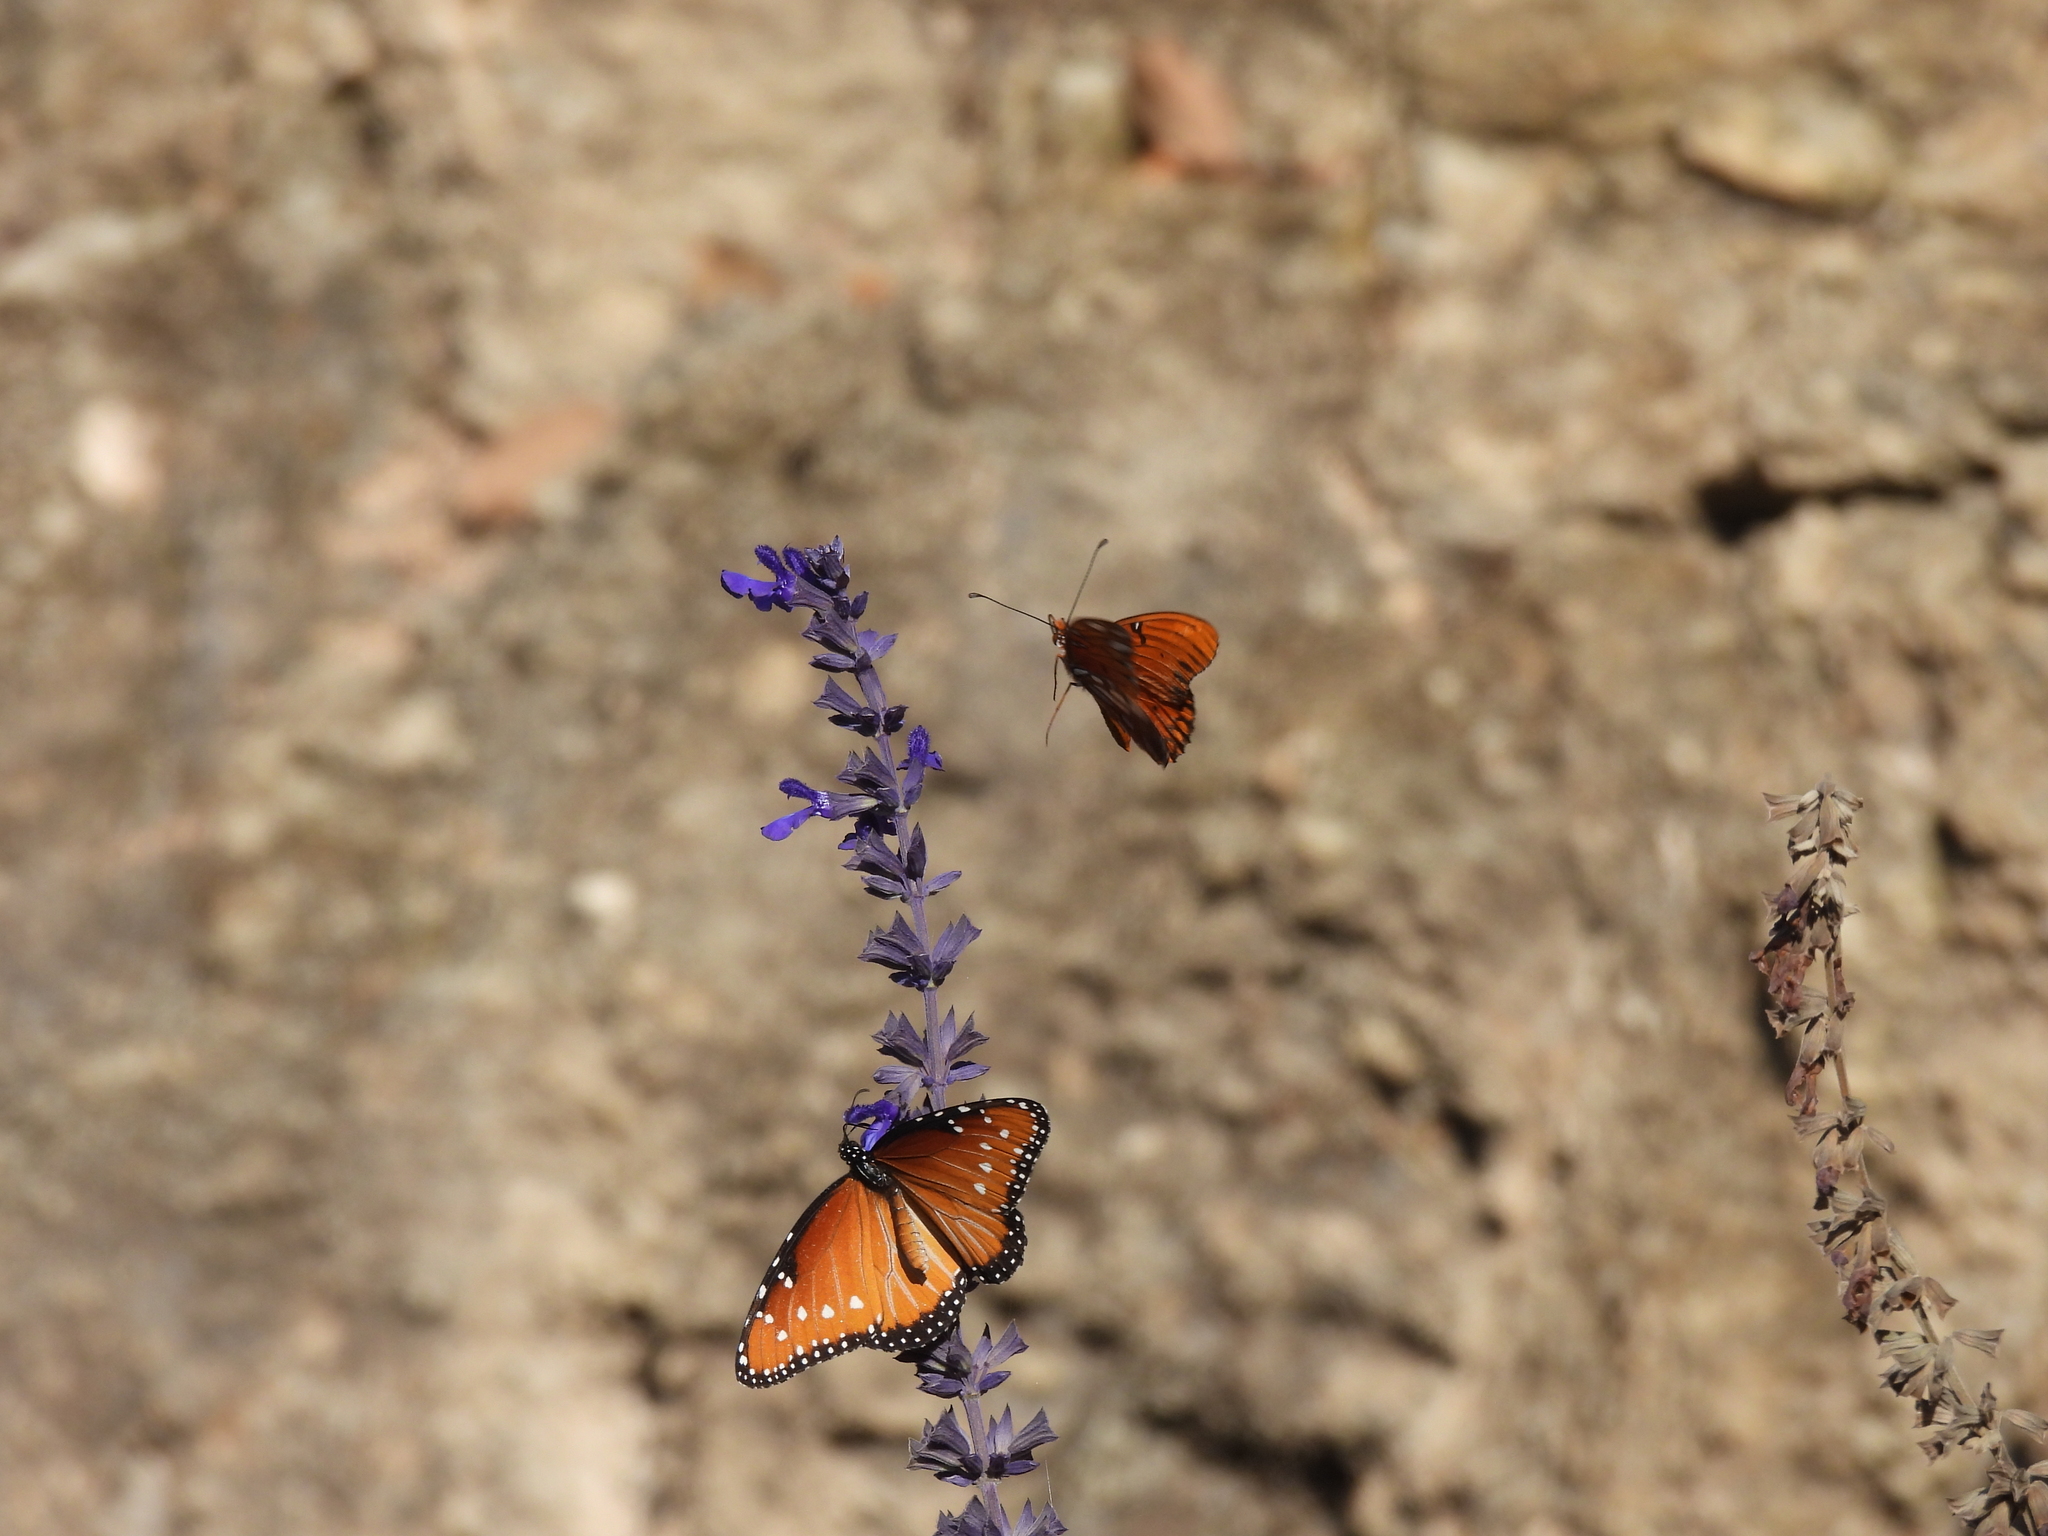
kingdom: Animalia
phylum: Arthropoda
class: Insecta
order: Lepidoptera
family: Nymphalidae
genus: Danaus
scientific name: Danaus gilippus
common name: Queen
